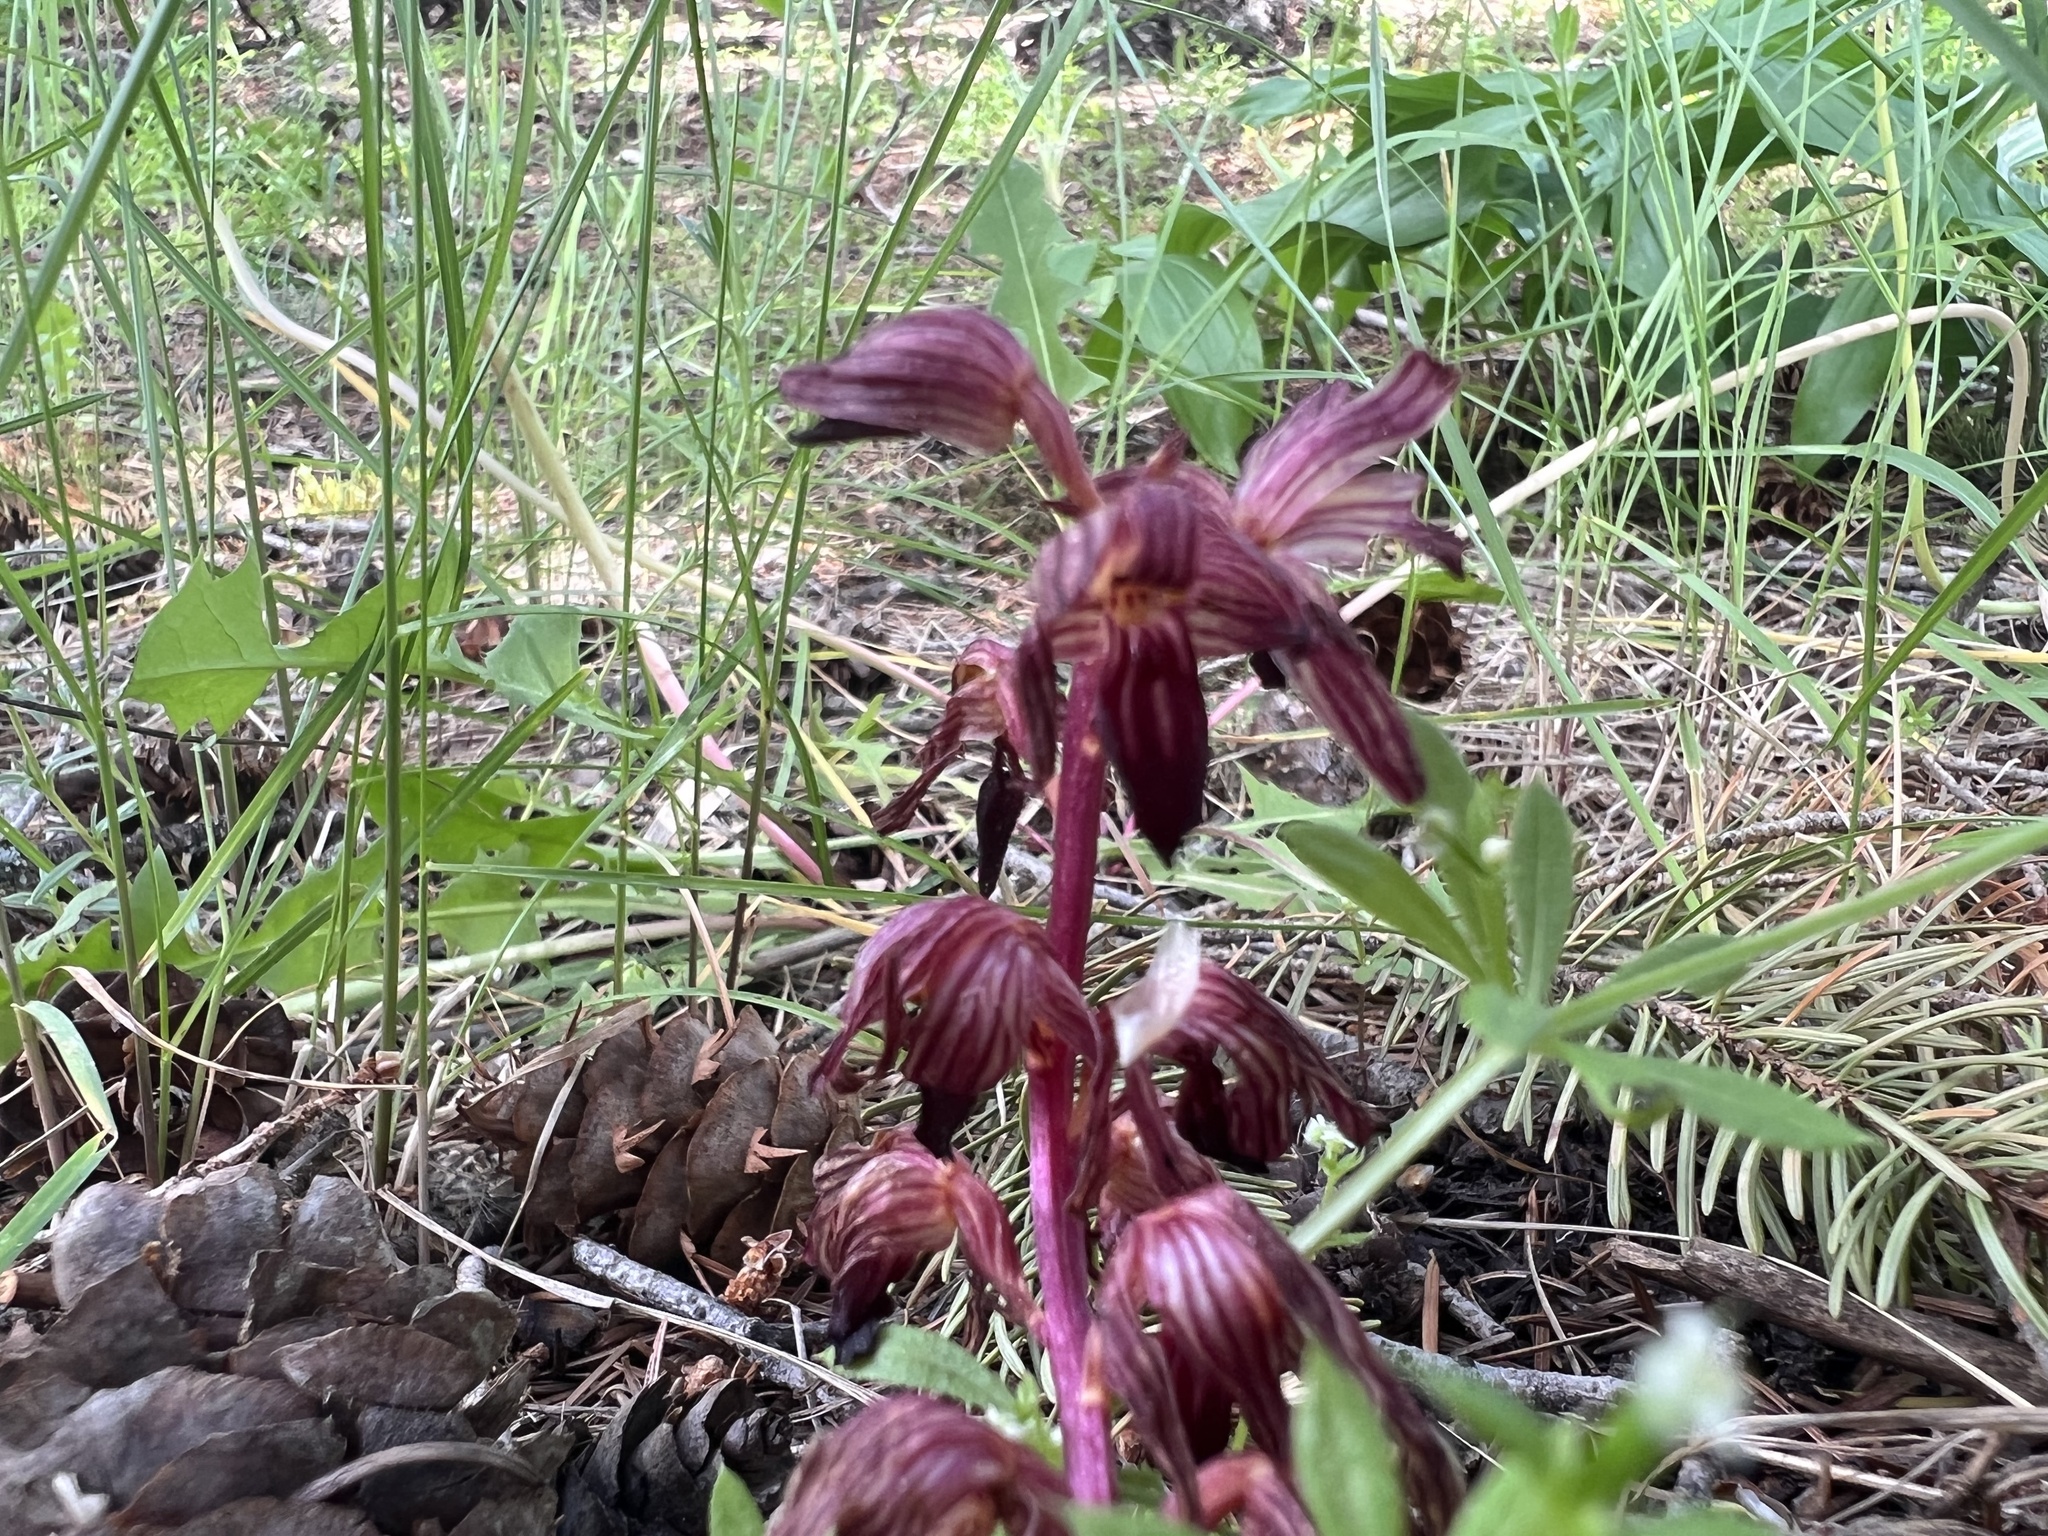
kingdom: Plantae
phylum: Tracheophyta
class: Liliopsida
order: Asparagales
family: Orchidaceae
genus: Corallorhiza
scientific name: Corallorhiza striata
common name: Hooded coralroot
